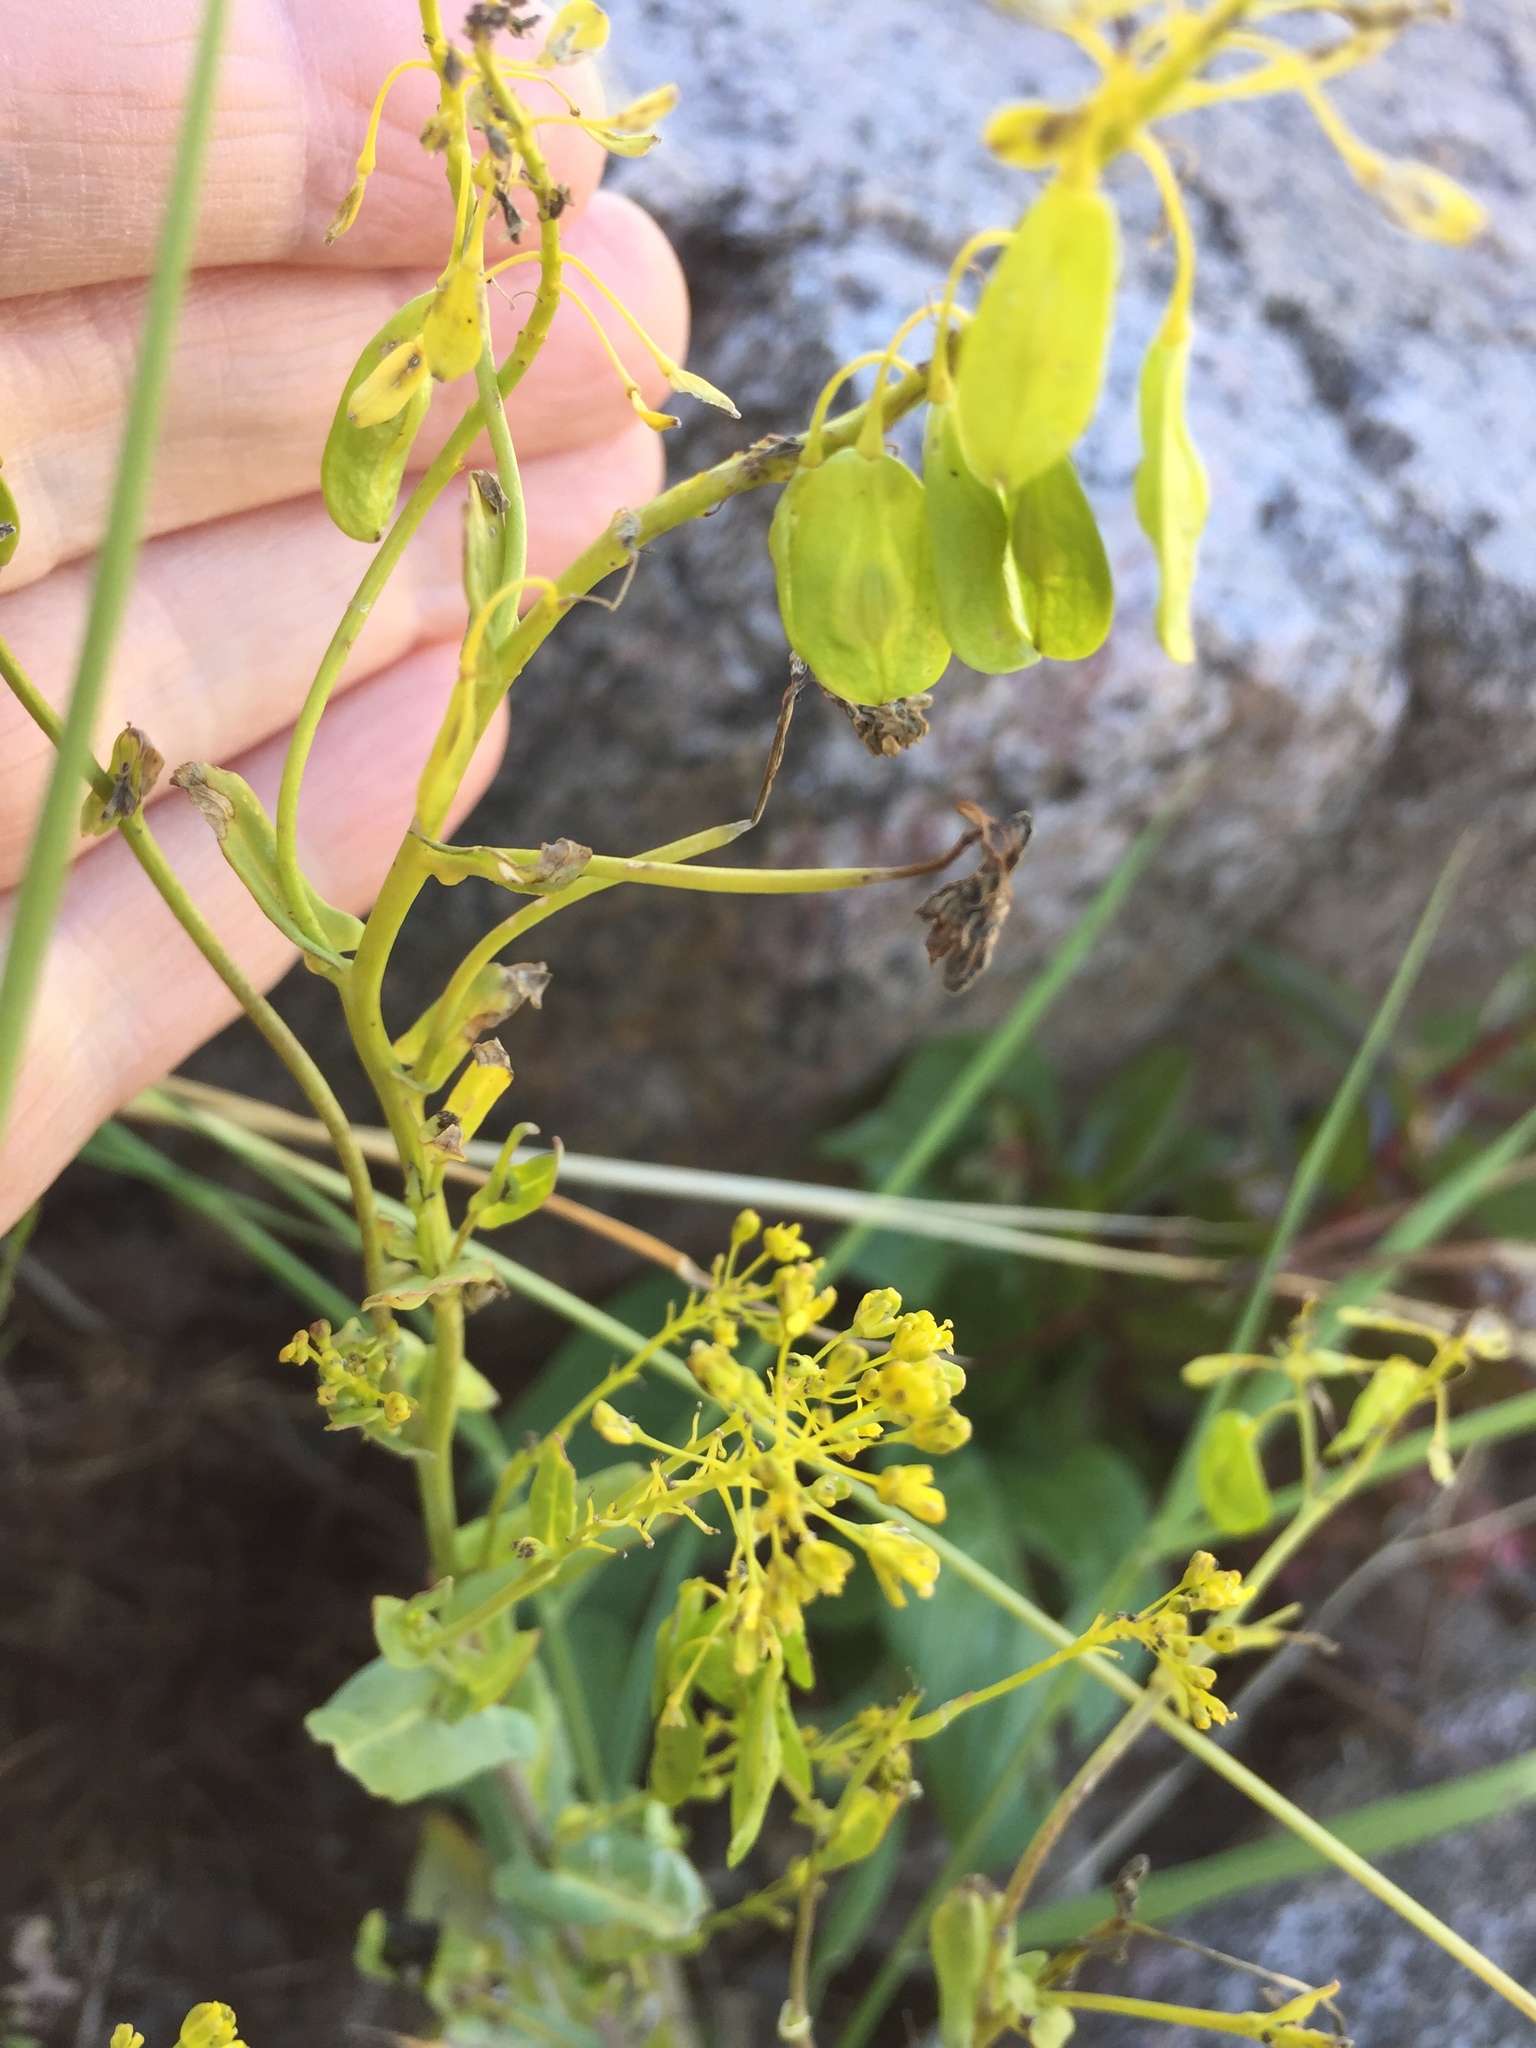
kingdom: Plantae
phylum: Tracheophyta
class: Magnoliopsida
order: Brassicales
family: Brassicaceae
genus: Isatis
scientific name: Isatis tinctoria
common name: Woad
